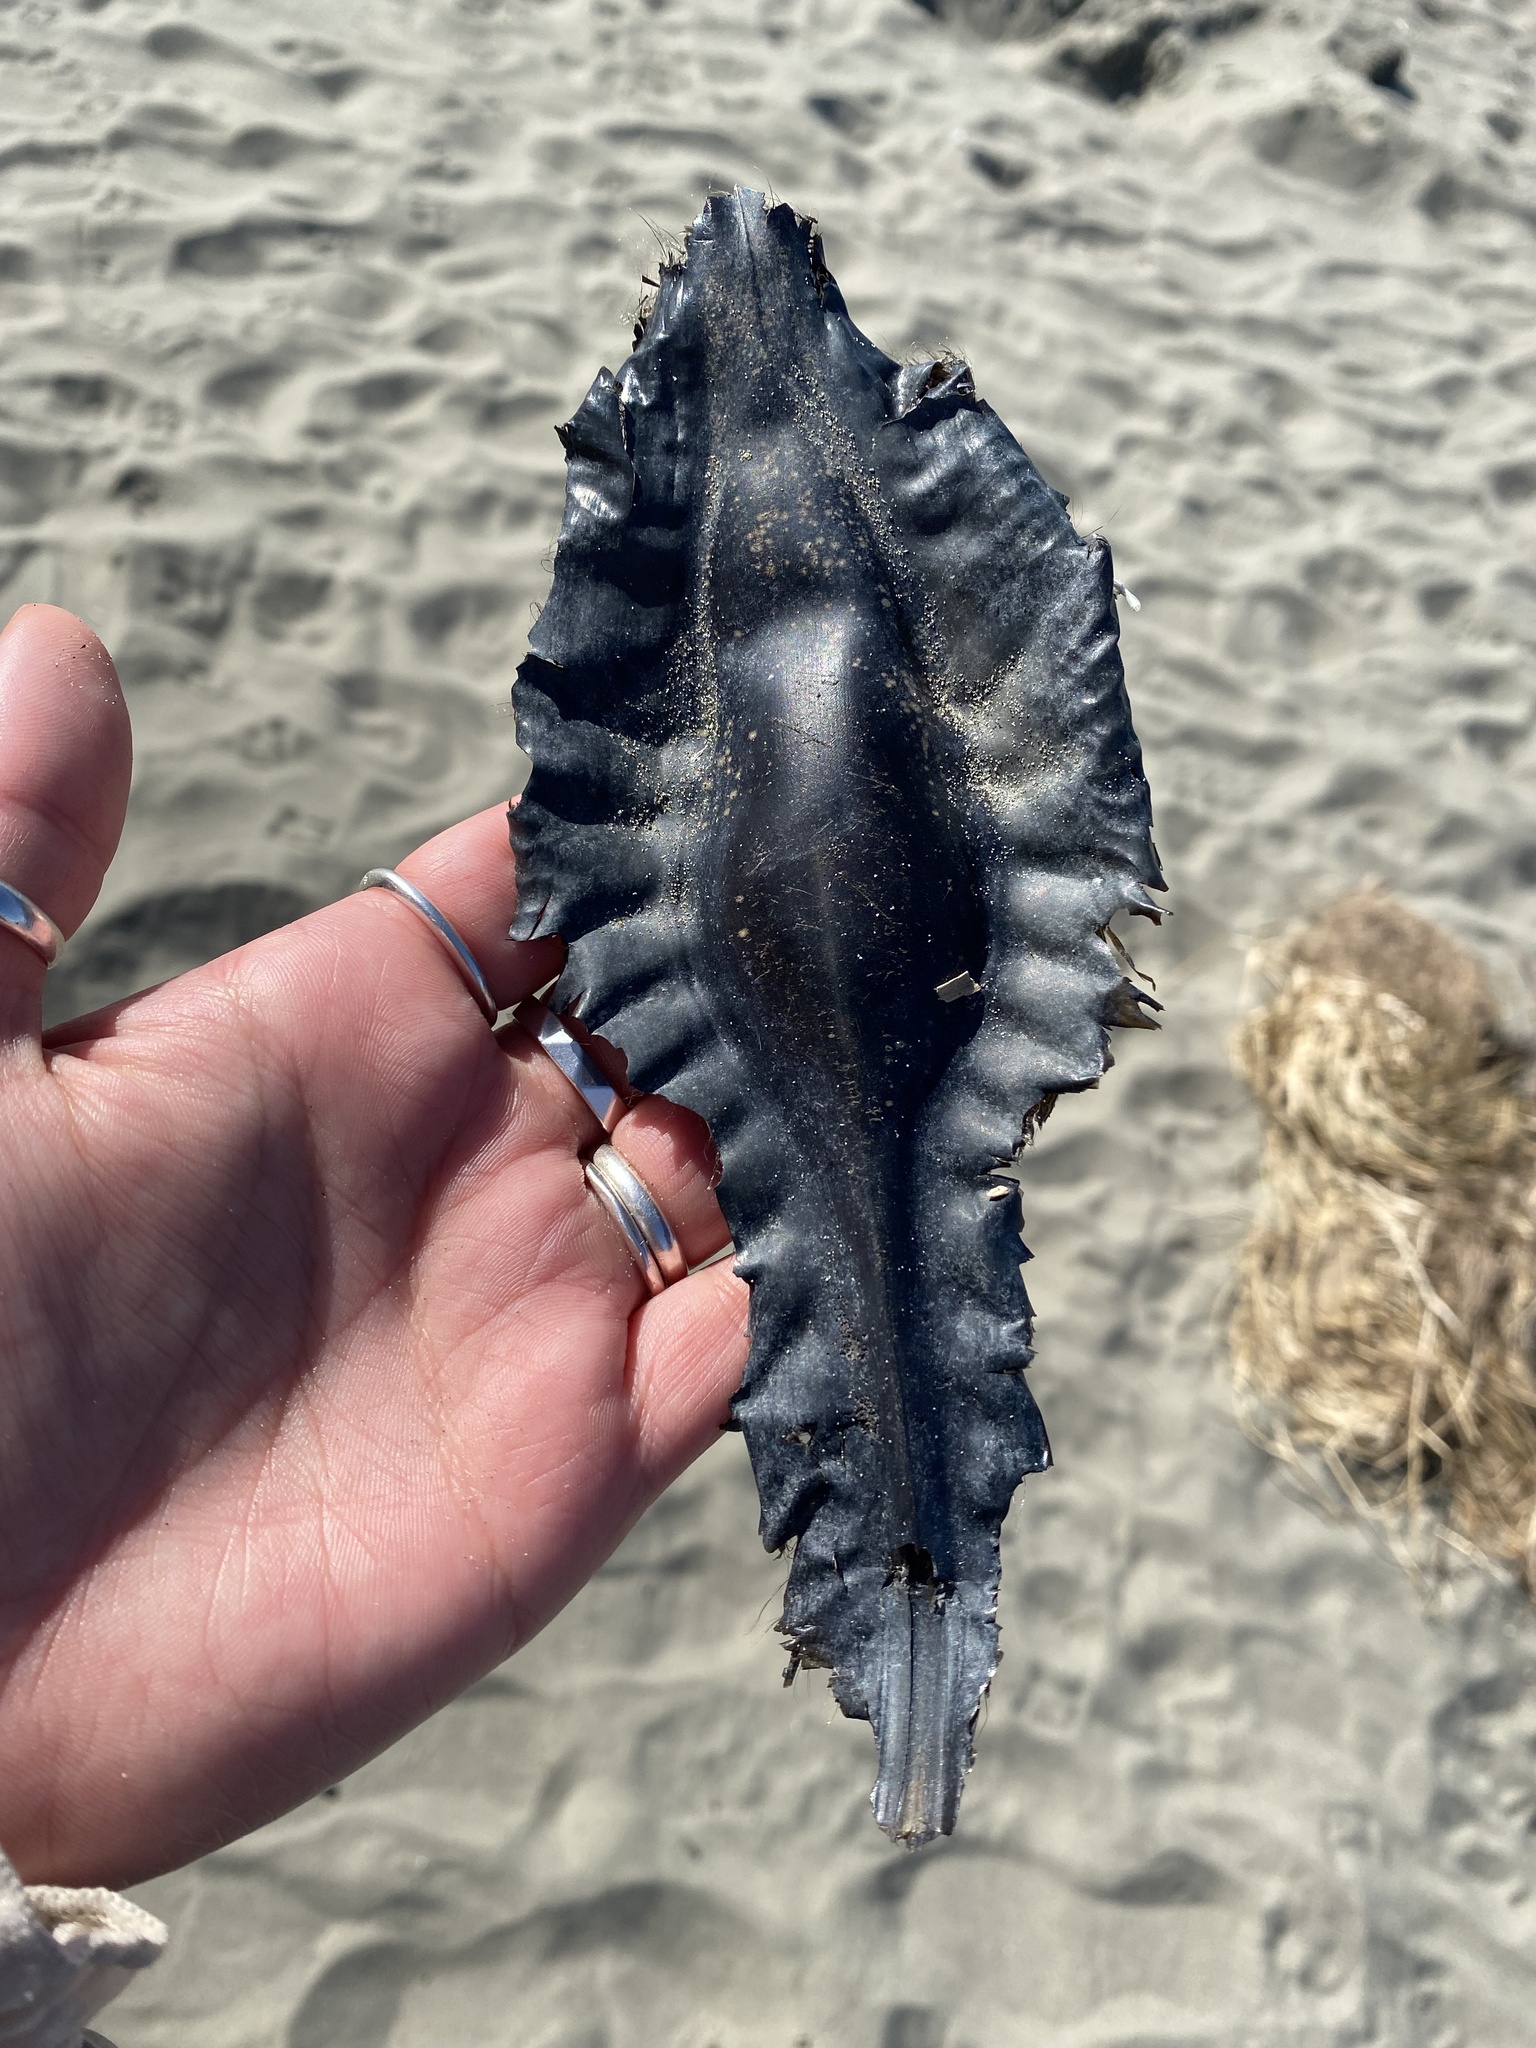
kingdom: Animalia
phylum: Chordata
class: Holocephali
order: Chimaeriformes
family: Callorhinchidae
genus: Callorhinchus
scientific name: Callorhinchus milii
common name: Elephant fish
